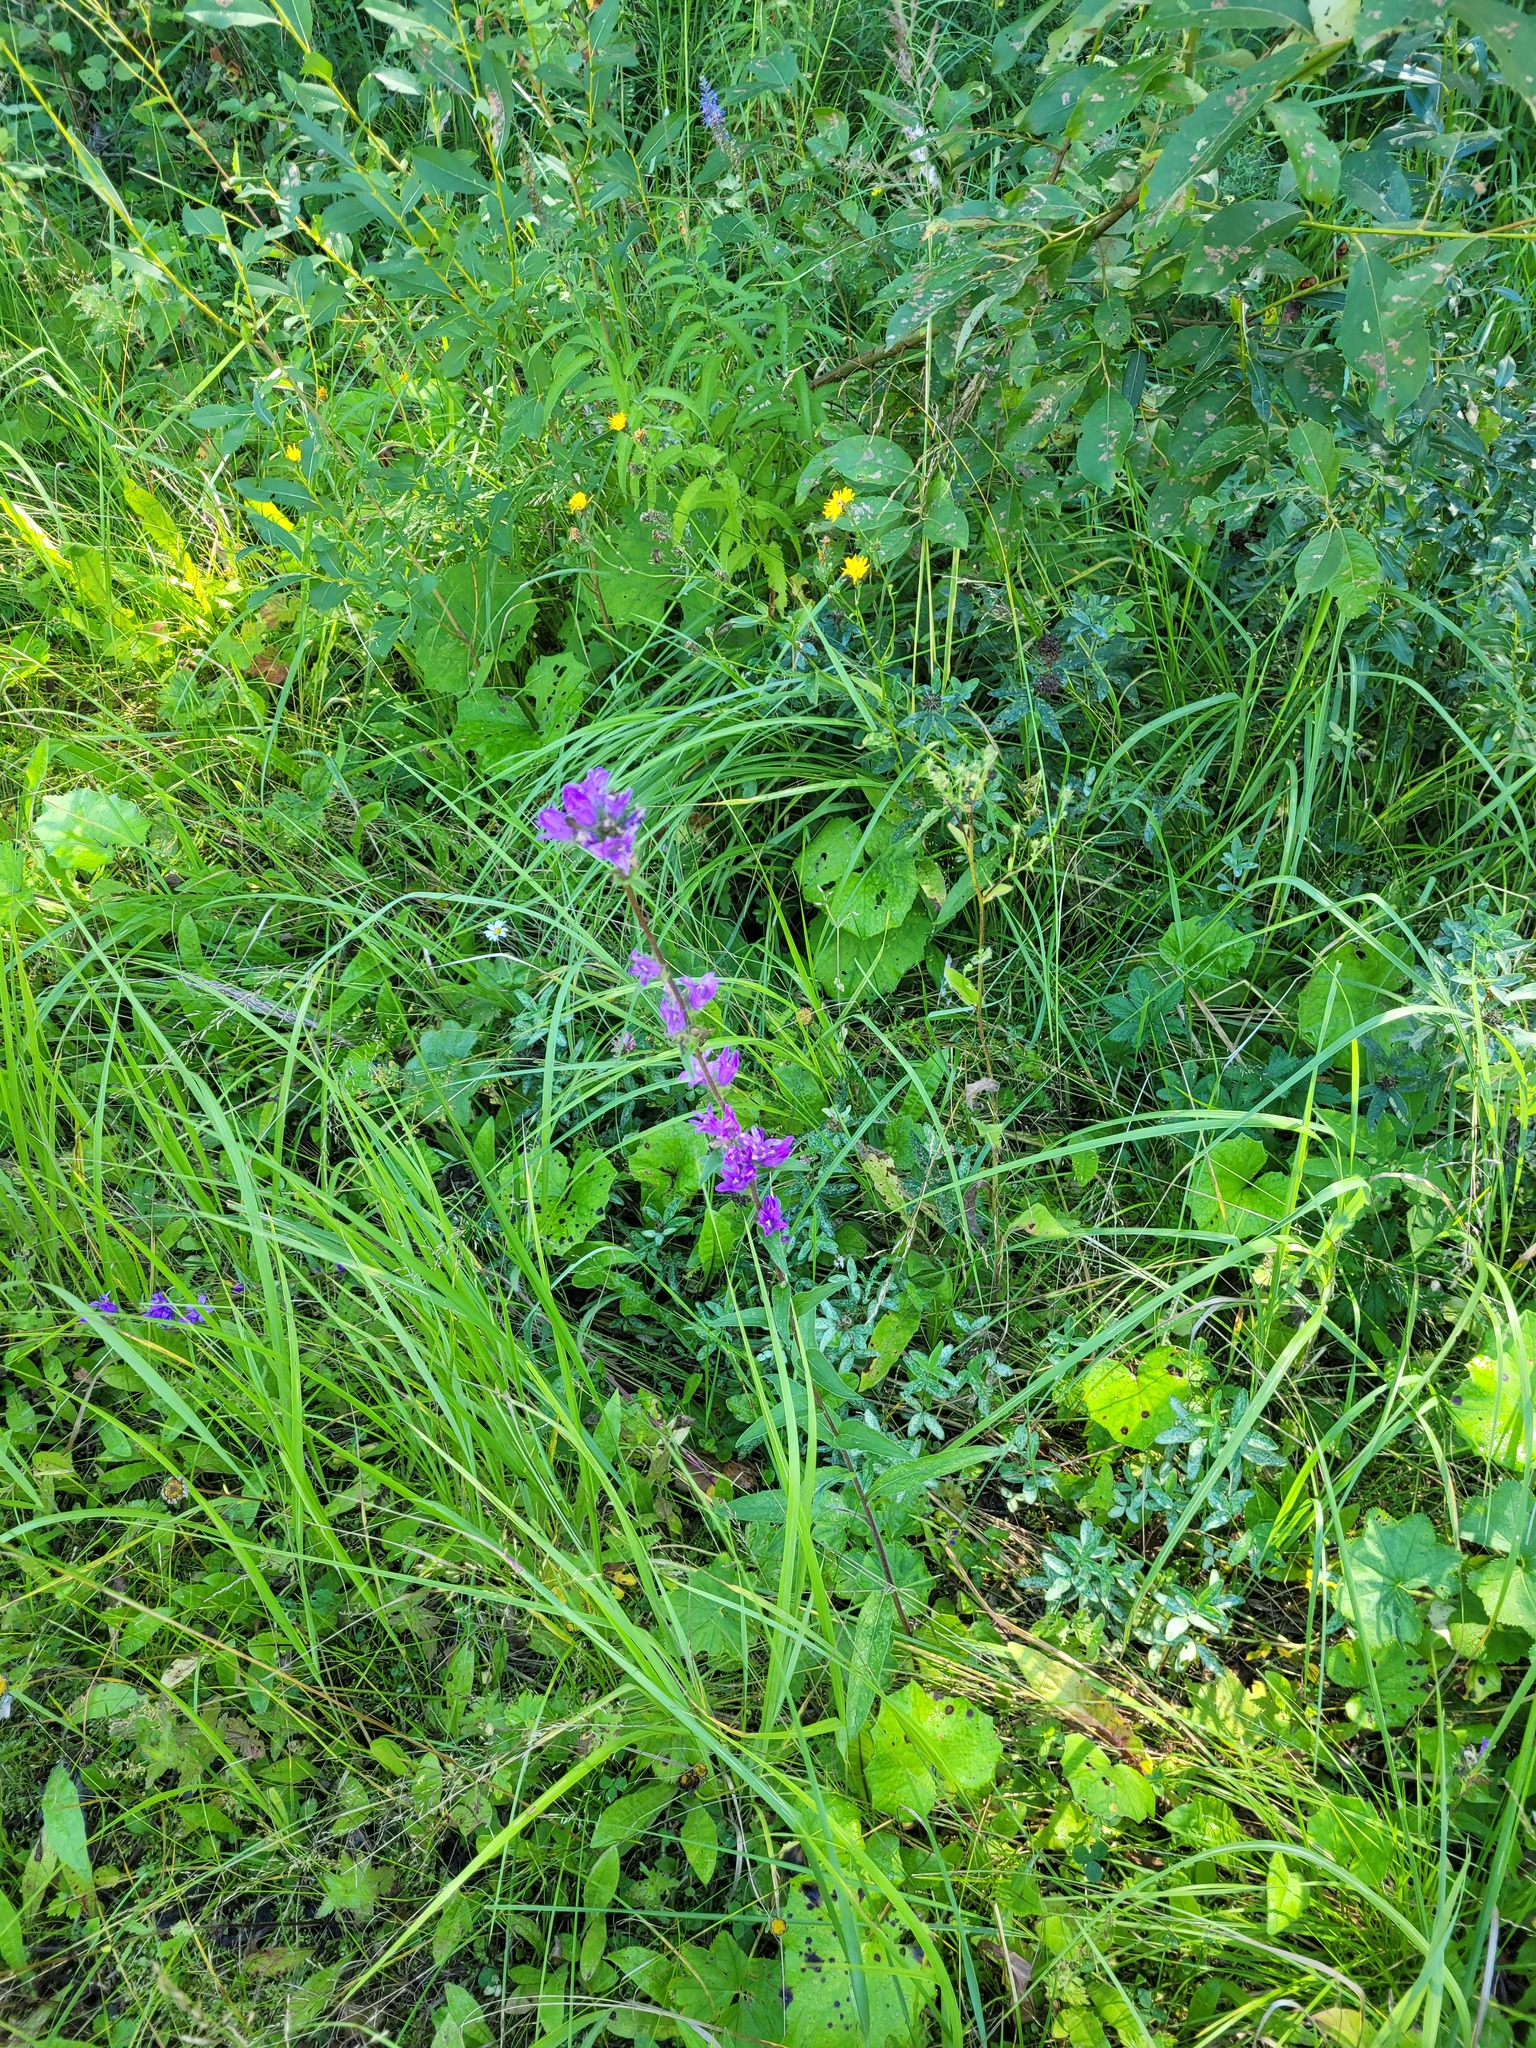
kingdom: Plantae
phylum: Tracheophyta
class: Magnoliopsida
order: Asterales
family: Campanulaceae
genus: Campanula
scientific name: Campanula glomerata
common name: Clustered bellflower
